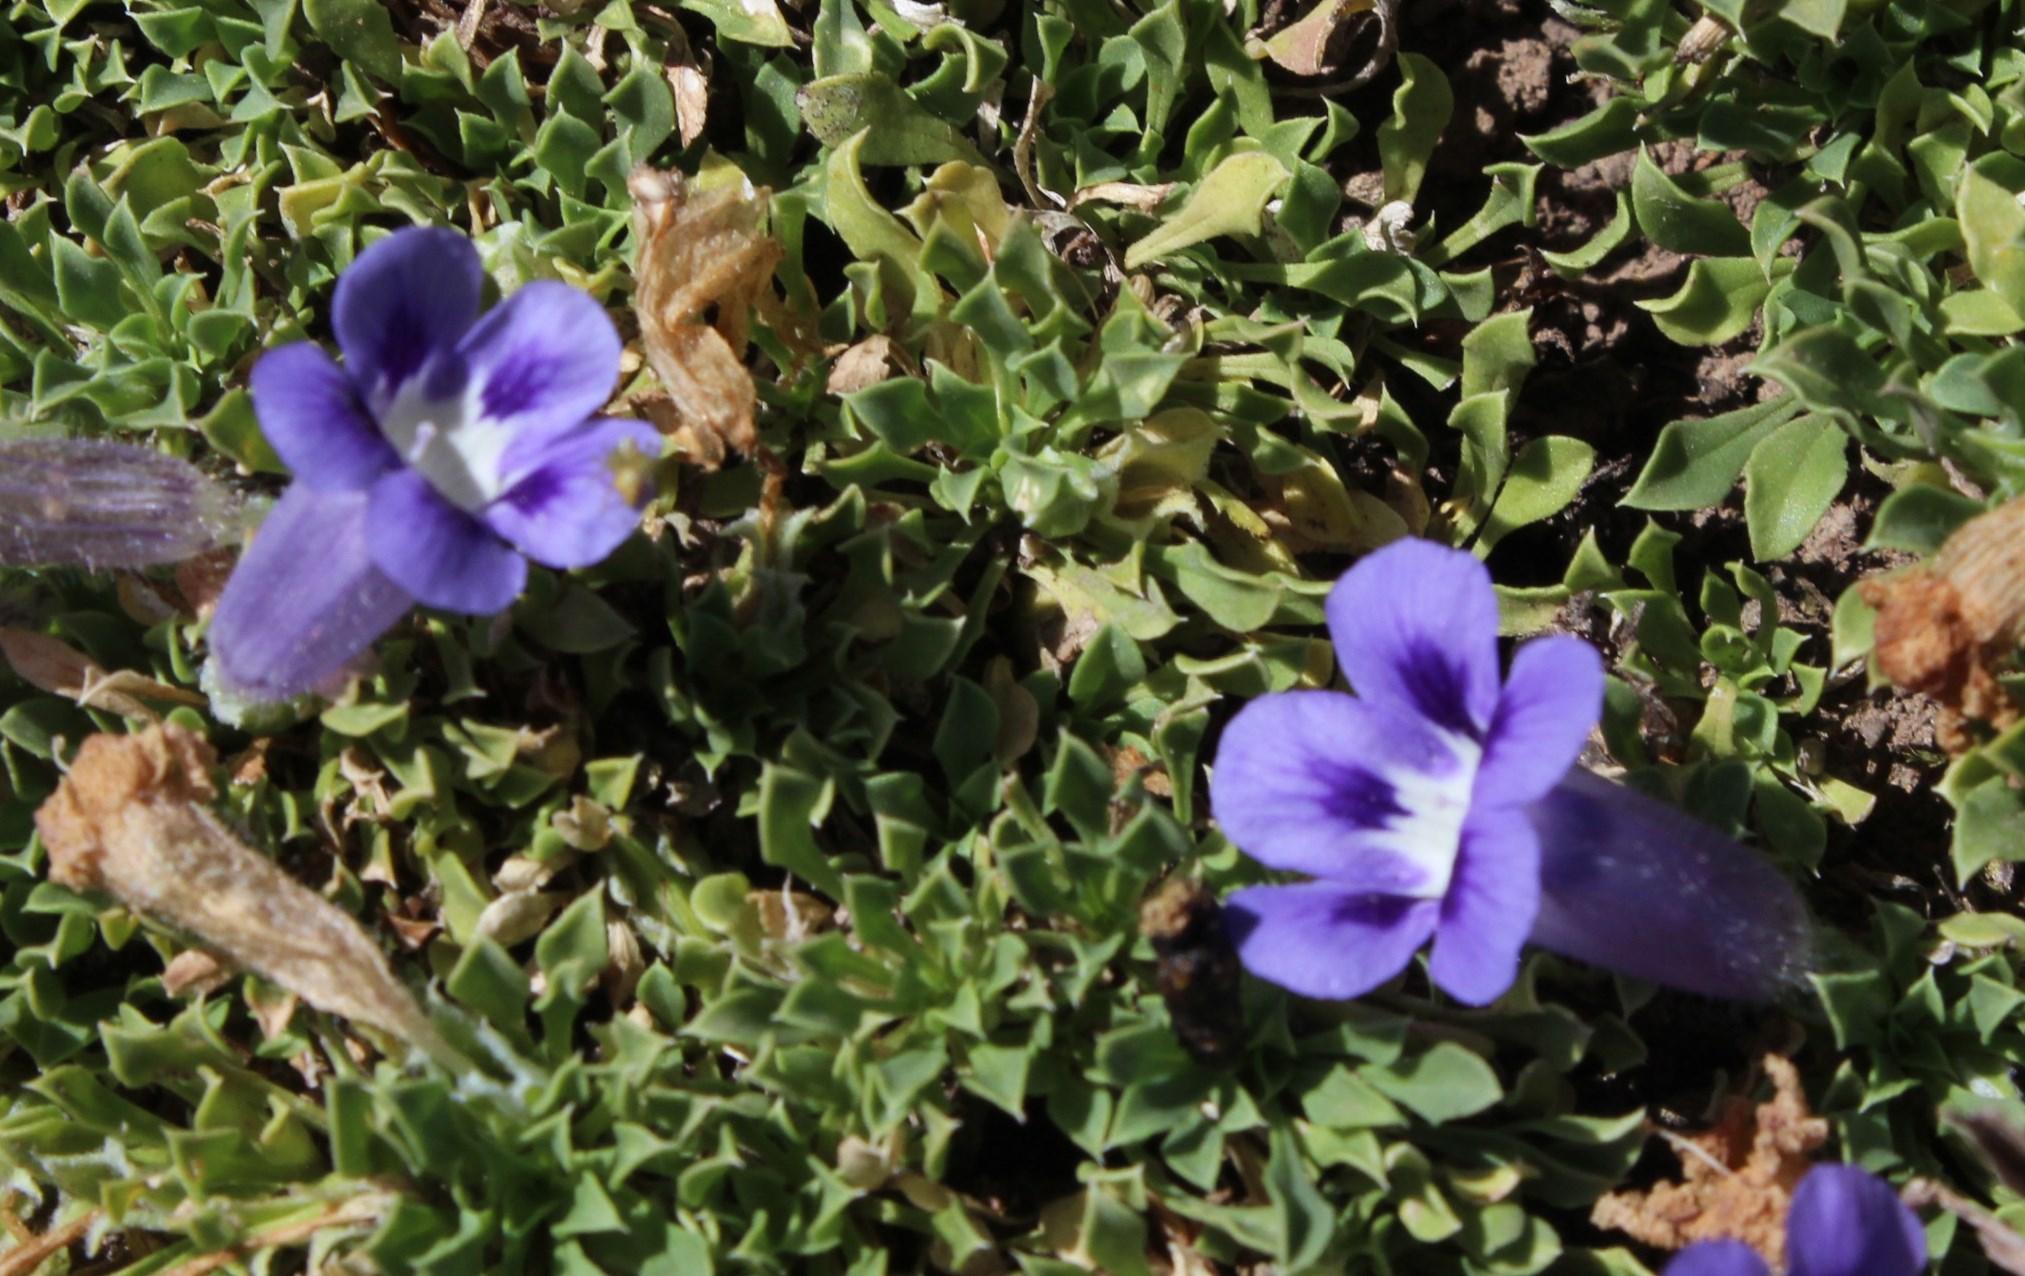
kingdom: Plantae
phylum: Tracheophyta
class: Magnoliopsida
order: Lamiales
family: Scrophulariaceae
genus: Aptosimum
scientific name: Aptosimum procumbens
